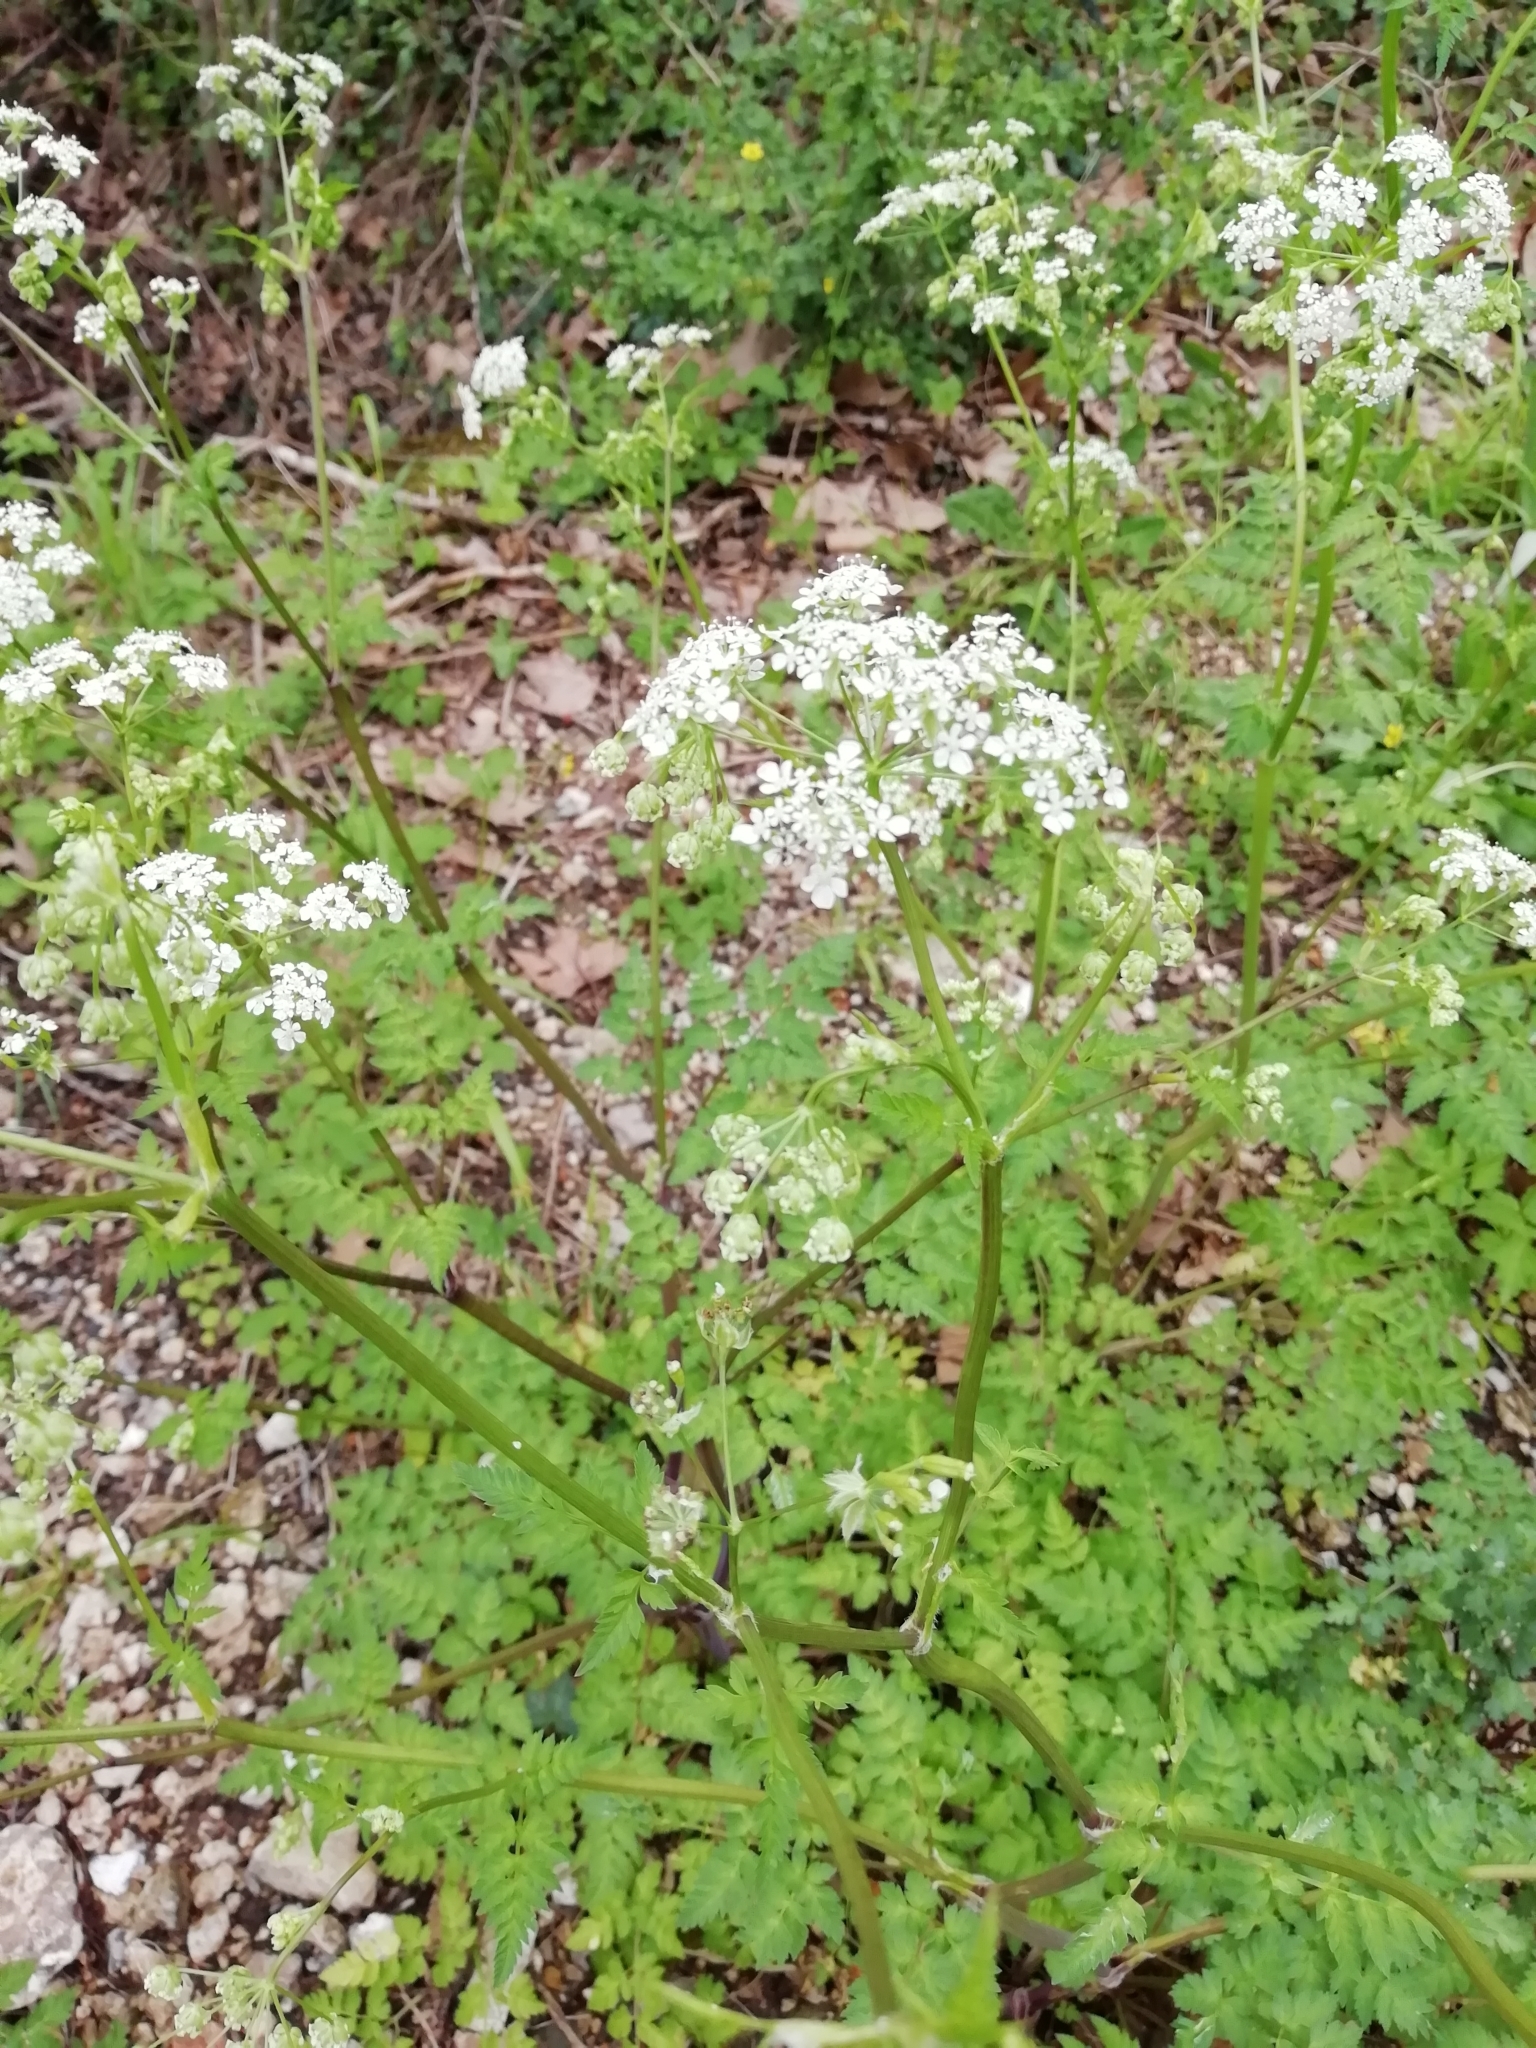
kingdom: Plantae
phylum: Tracheophyta
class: Magnoliopsida
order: Apiales
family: Apiaceae
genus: Anthriscus
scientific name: Anthriscus sylvestris
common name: Cow parsley
